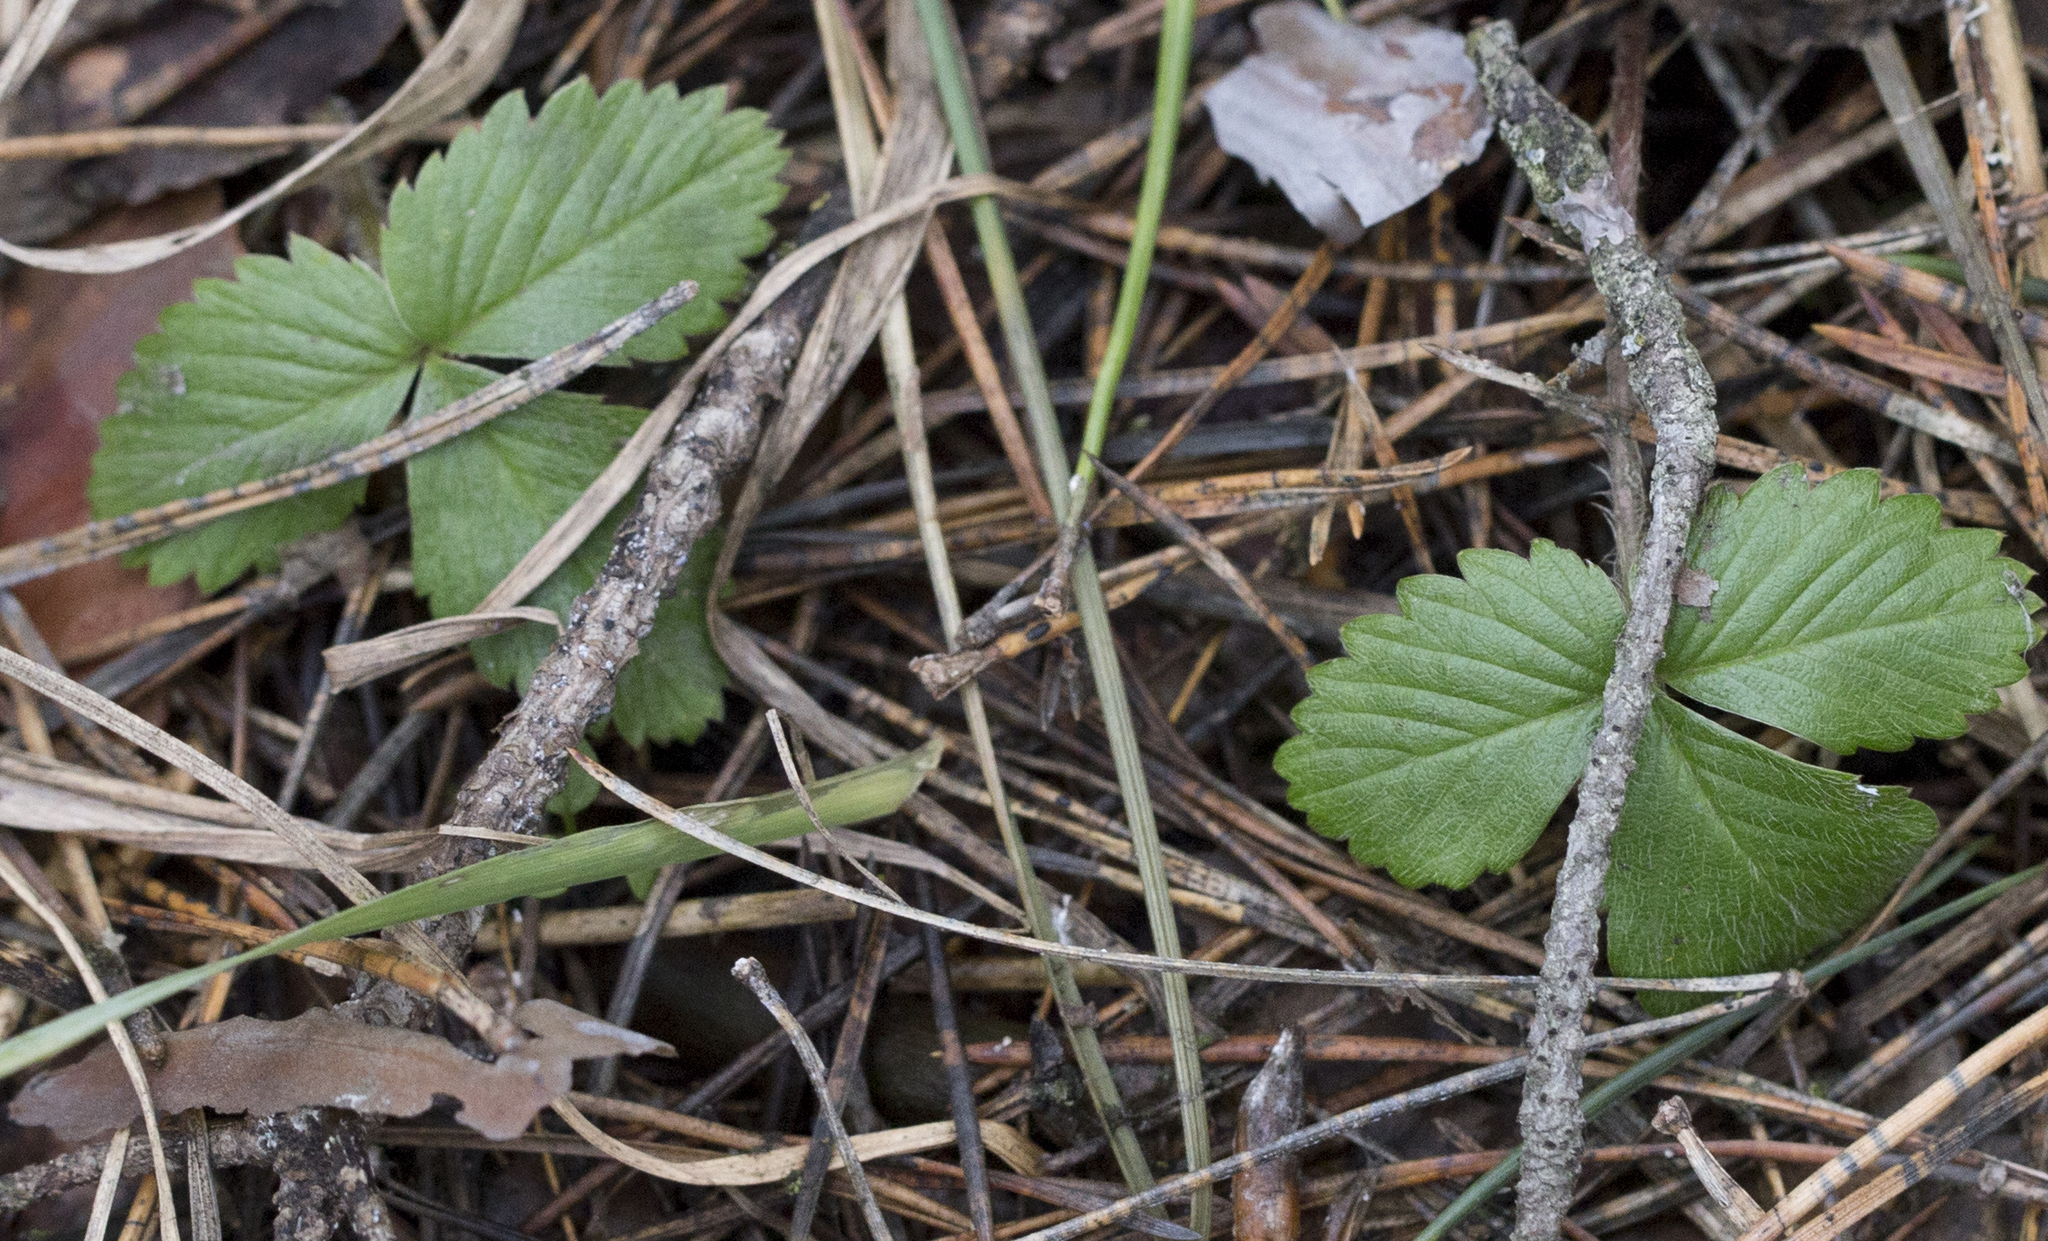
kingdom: Plantae
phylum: Tracheophyta
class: Magnoliopsida
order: Rosales
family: Rosaceae
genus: Fragaria
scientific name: Fragaria vesca
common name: Wild strawberry
